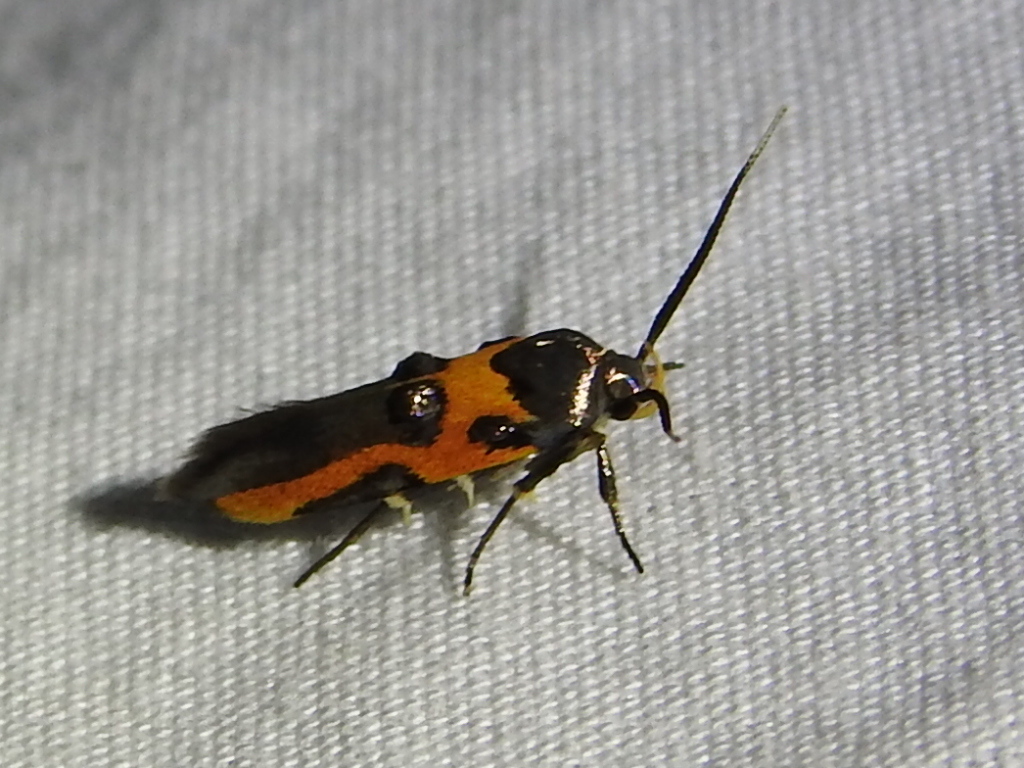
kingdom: Animalia
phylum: Arthropoda
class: Insecta
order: Lepidoptera
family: Cosmopterigidae
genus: Euclemensia
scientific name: Euclemensia bassettella
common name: Kermes scale moth
